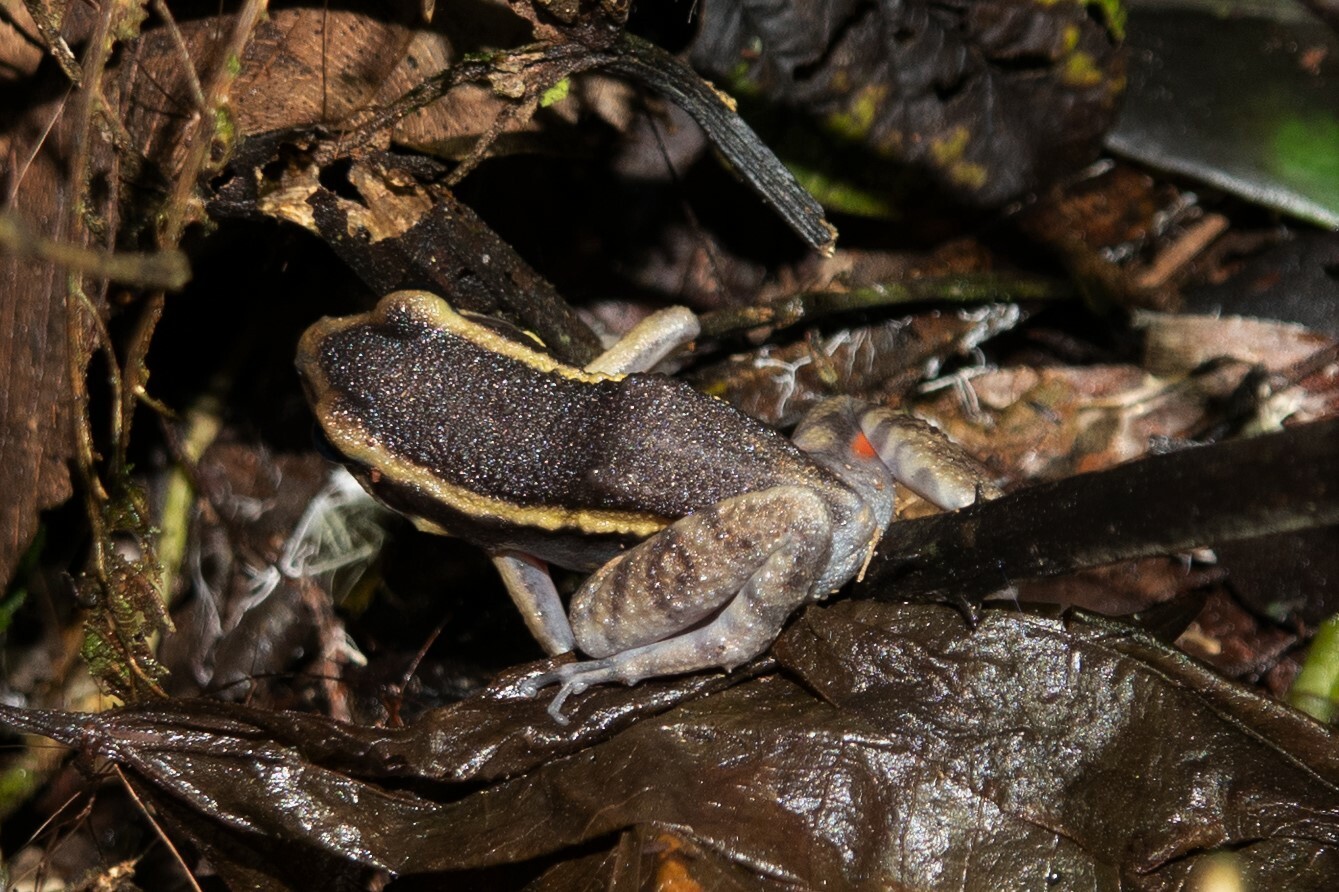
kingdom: Animalia
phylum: Chordata
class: Amphibia
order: Anura
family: Leptodactylidae
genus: Lithodytes
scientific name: Lithodytes lineatus
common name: Gold-striped frog
